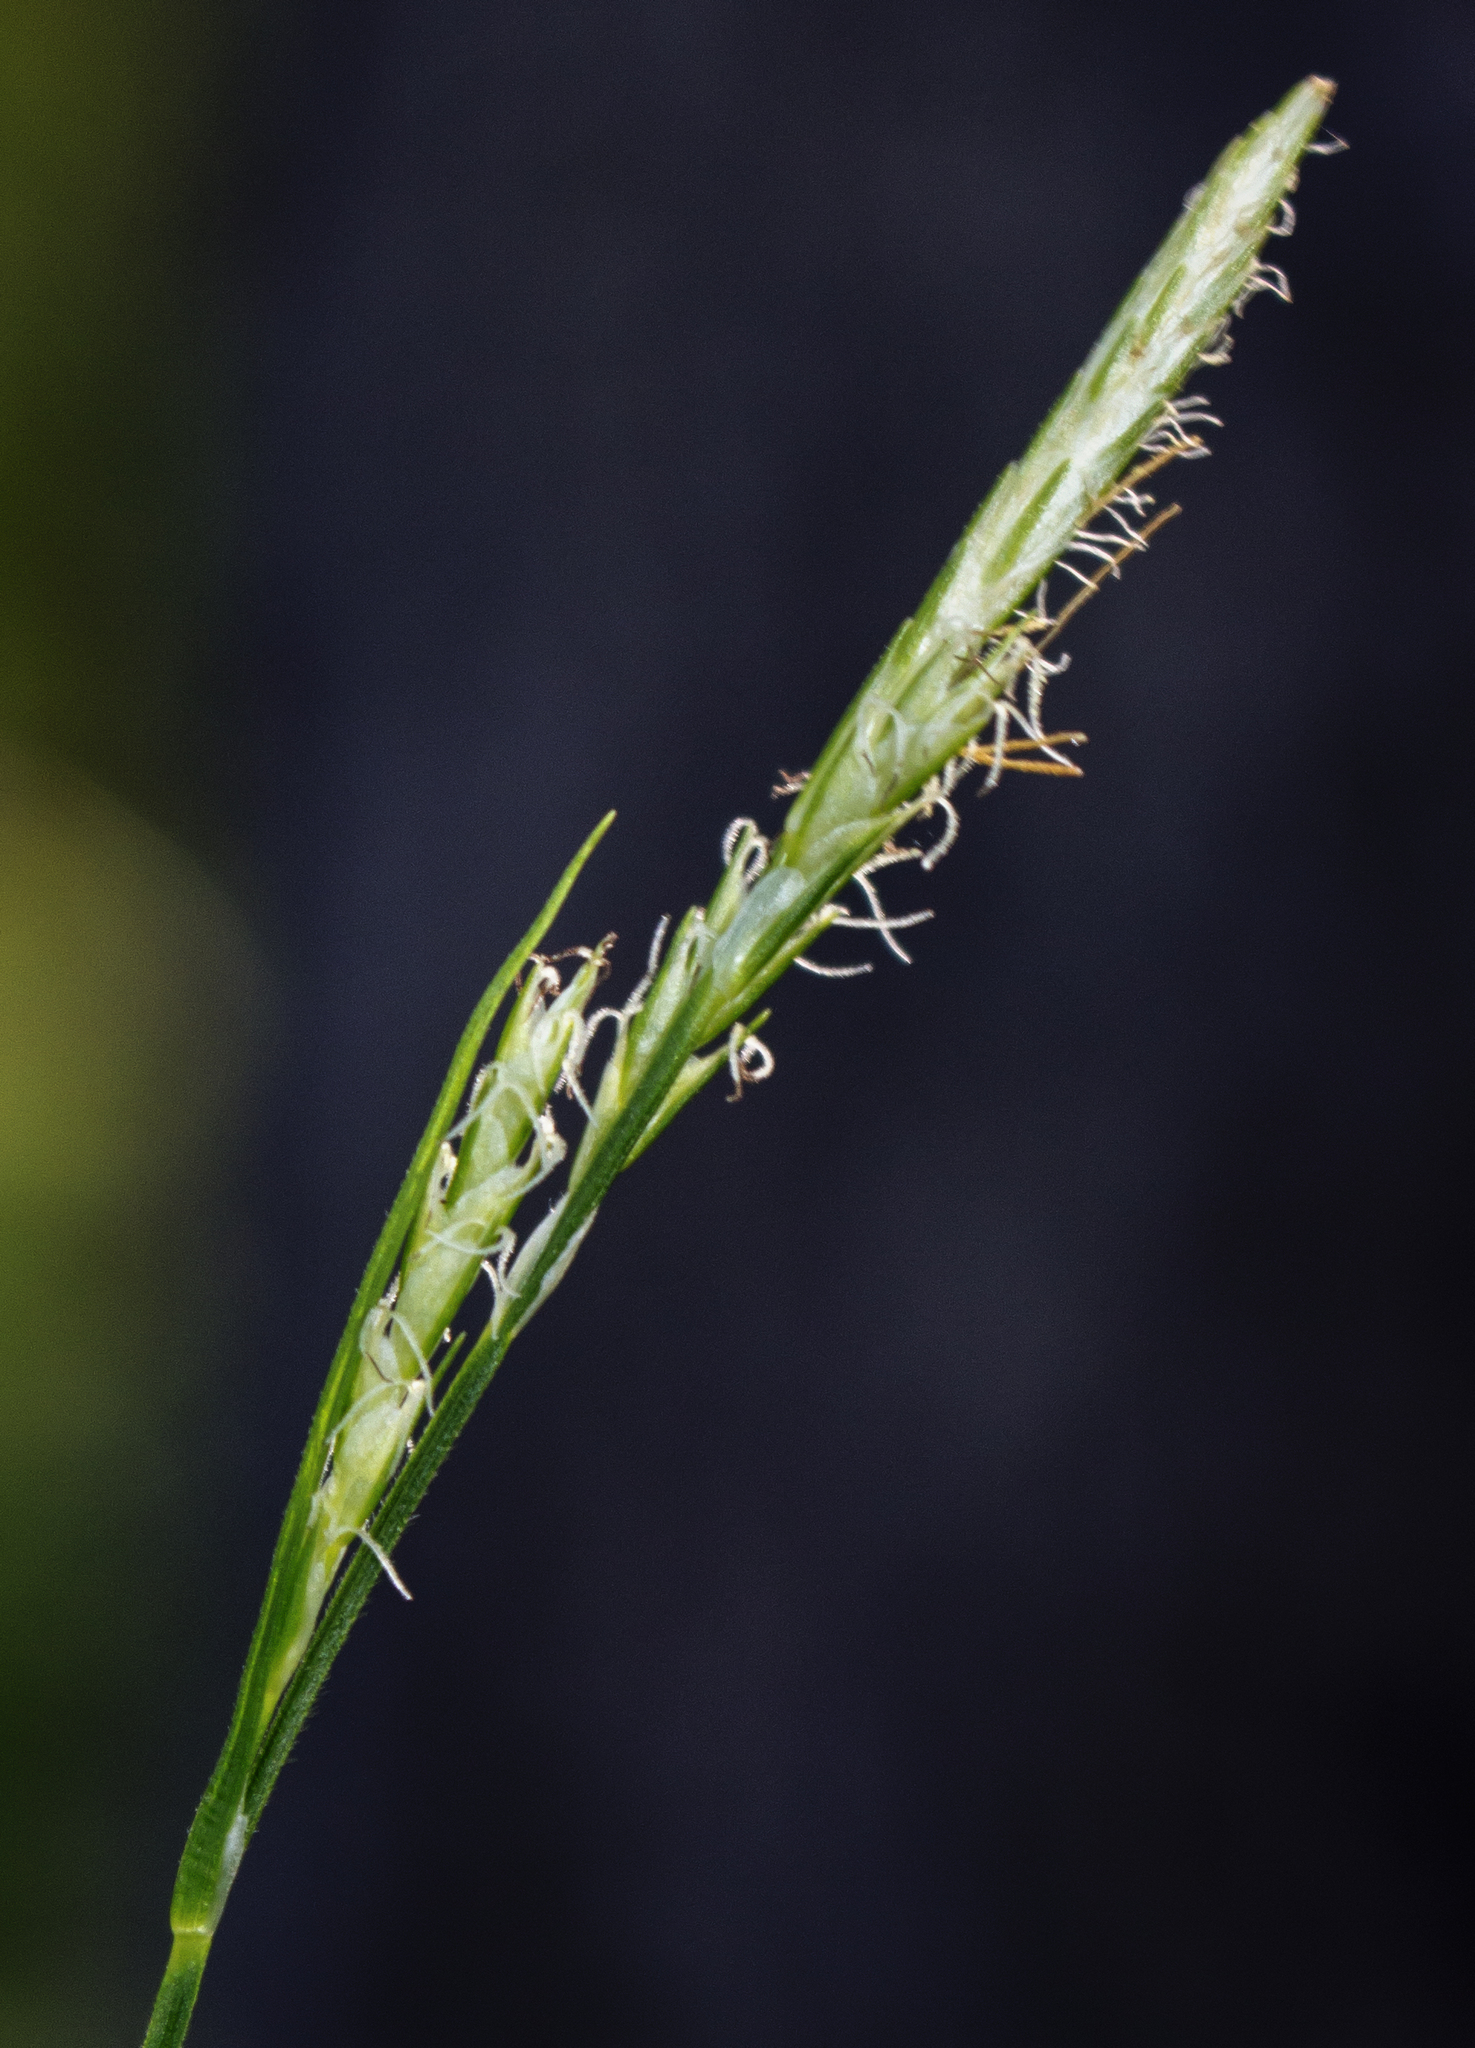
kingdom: Plantae
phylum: Tracheophyta
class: Liliopsida
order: Poales
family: Cyperaceae
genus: Carex
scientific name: Carex hirtifolia
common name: Hairy sedge
